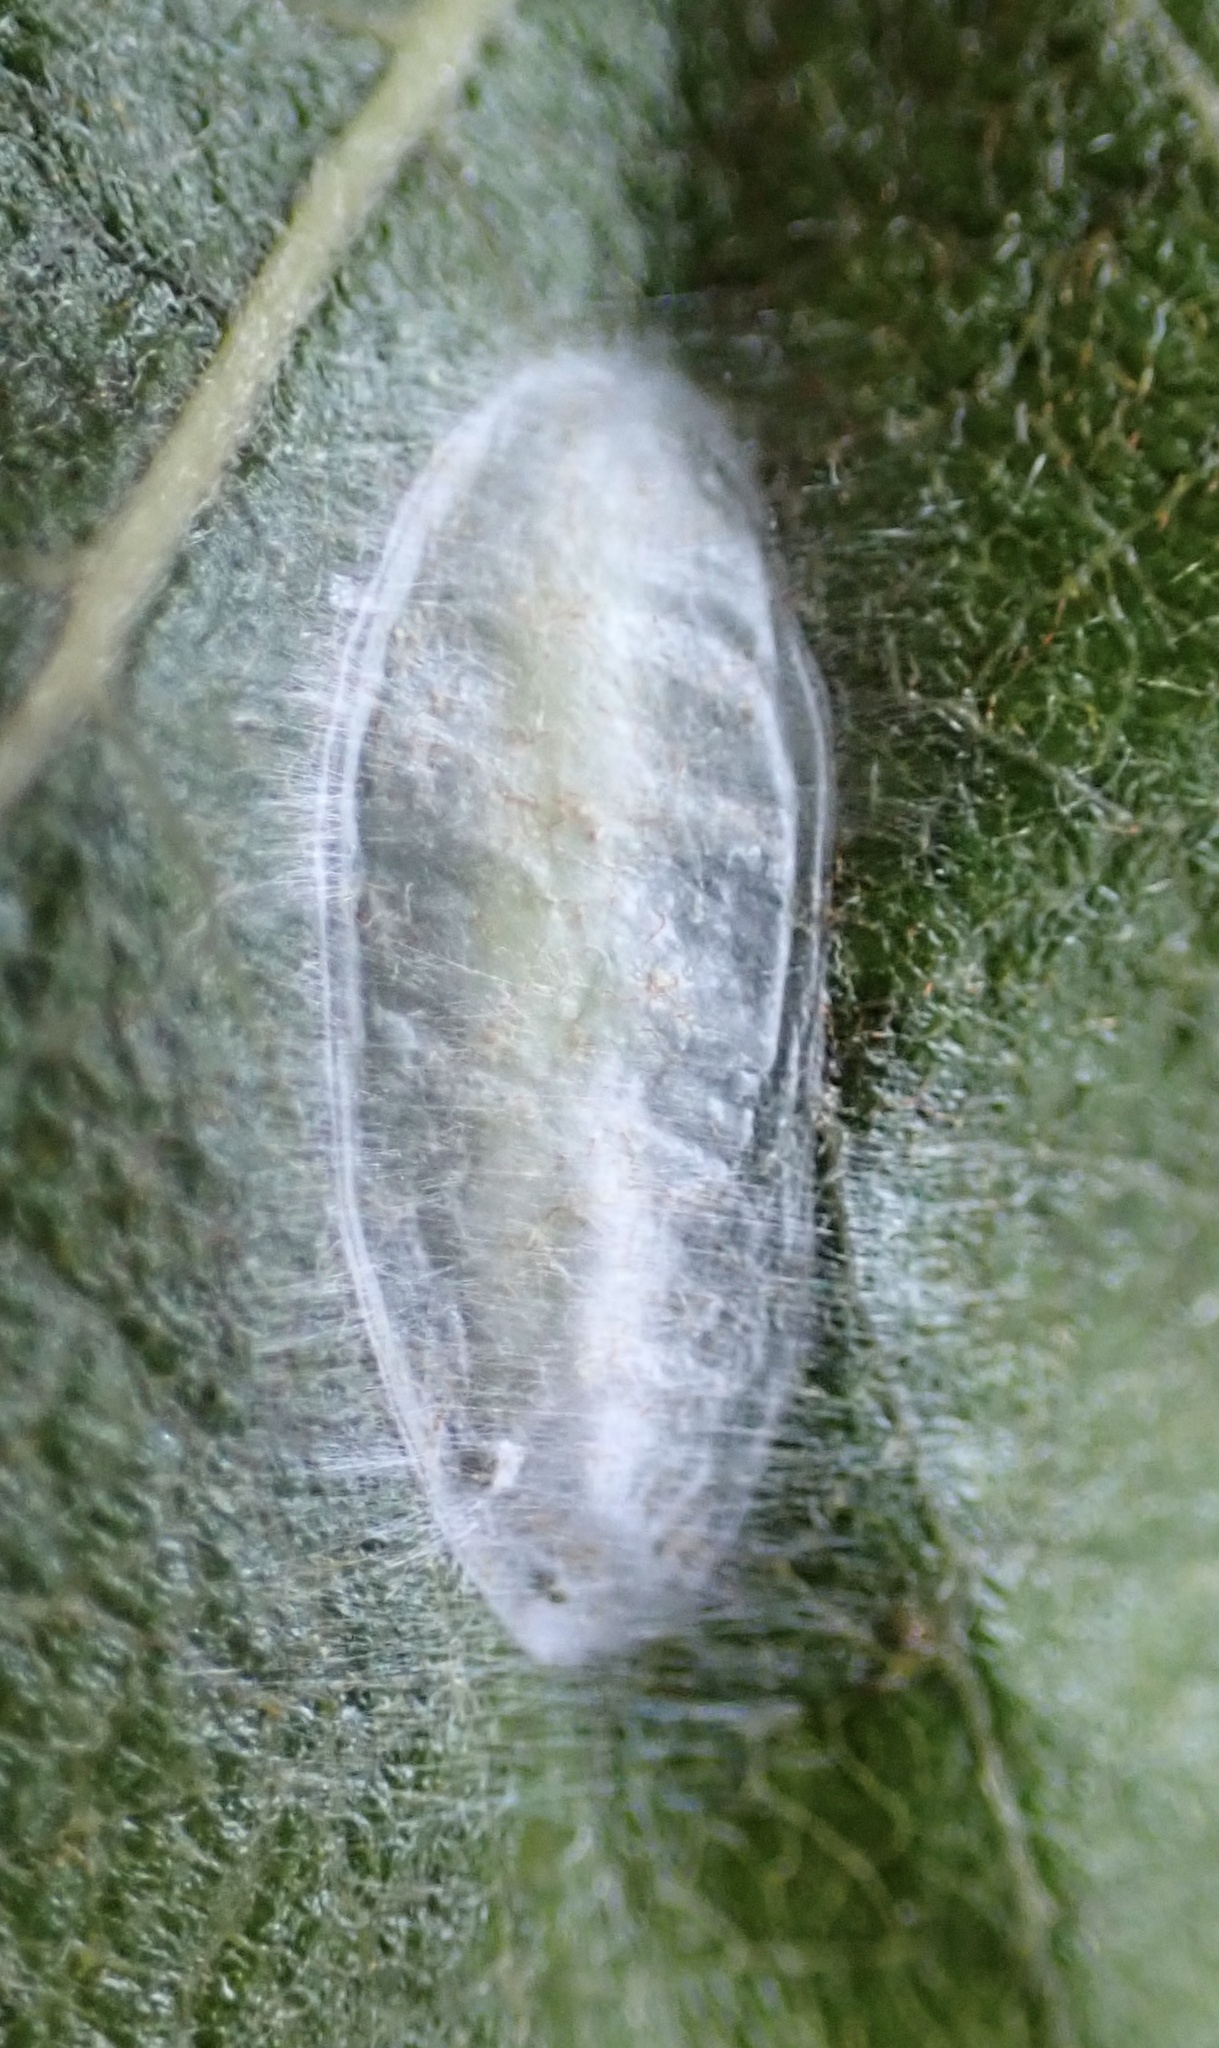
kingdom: Animalia
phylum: Arthropoda
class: Insecta
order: Lepidoptera
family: Gracillariidae
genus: Caloptilia
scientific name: Caloptilia stigmatella
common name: White-triangle slender
